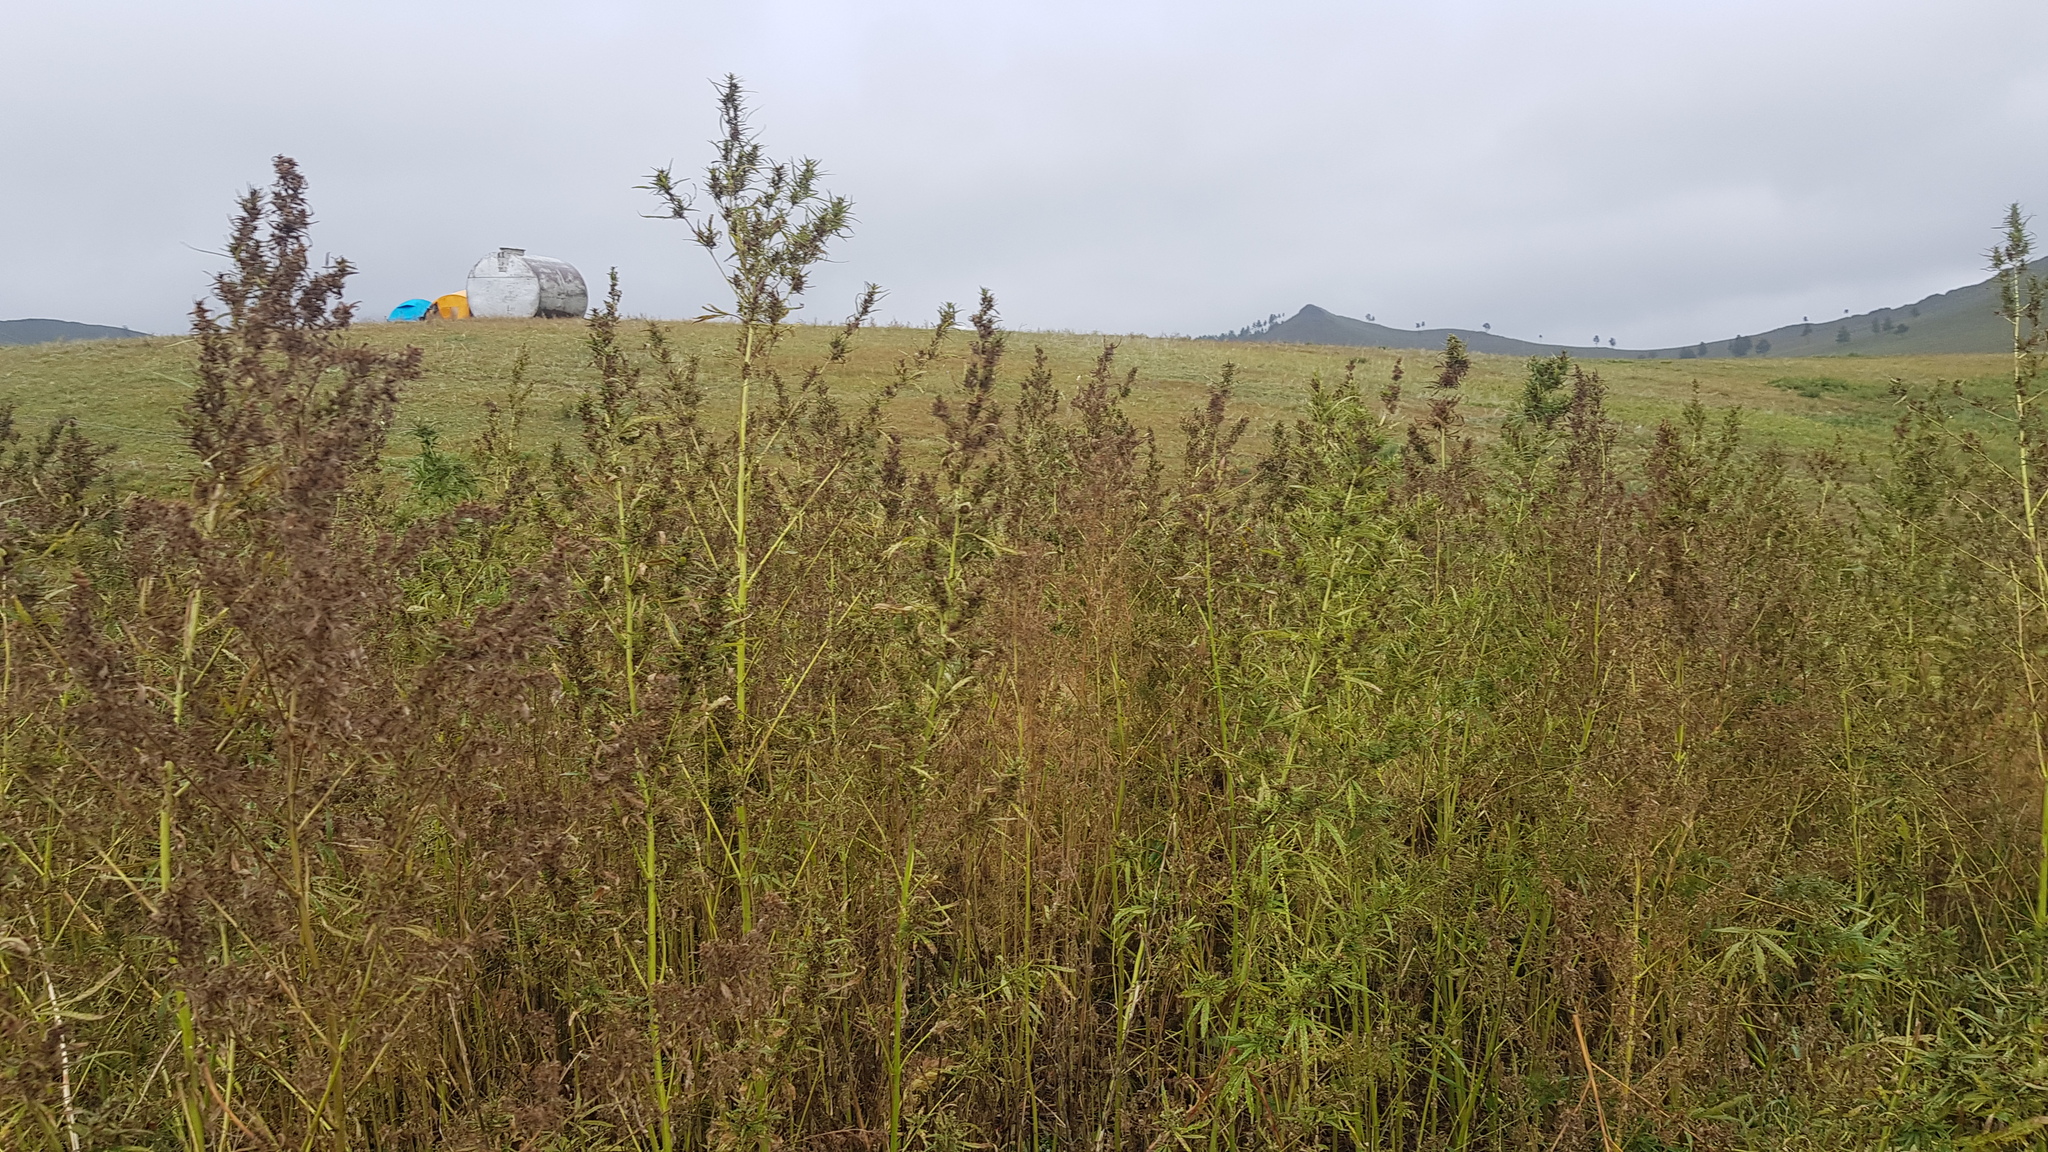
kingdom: Plantae
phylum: Tracheophyta
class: Magnoliopsida
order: Rosales
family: Cannabaceae
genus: Cannabis
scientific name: Cannabis sativa
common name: Hemp
